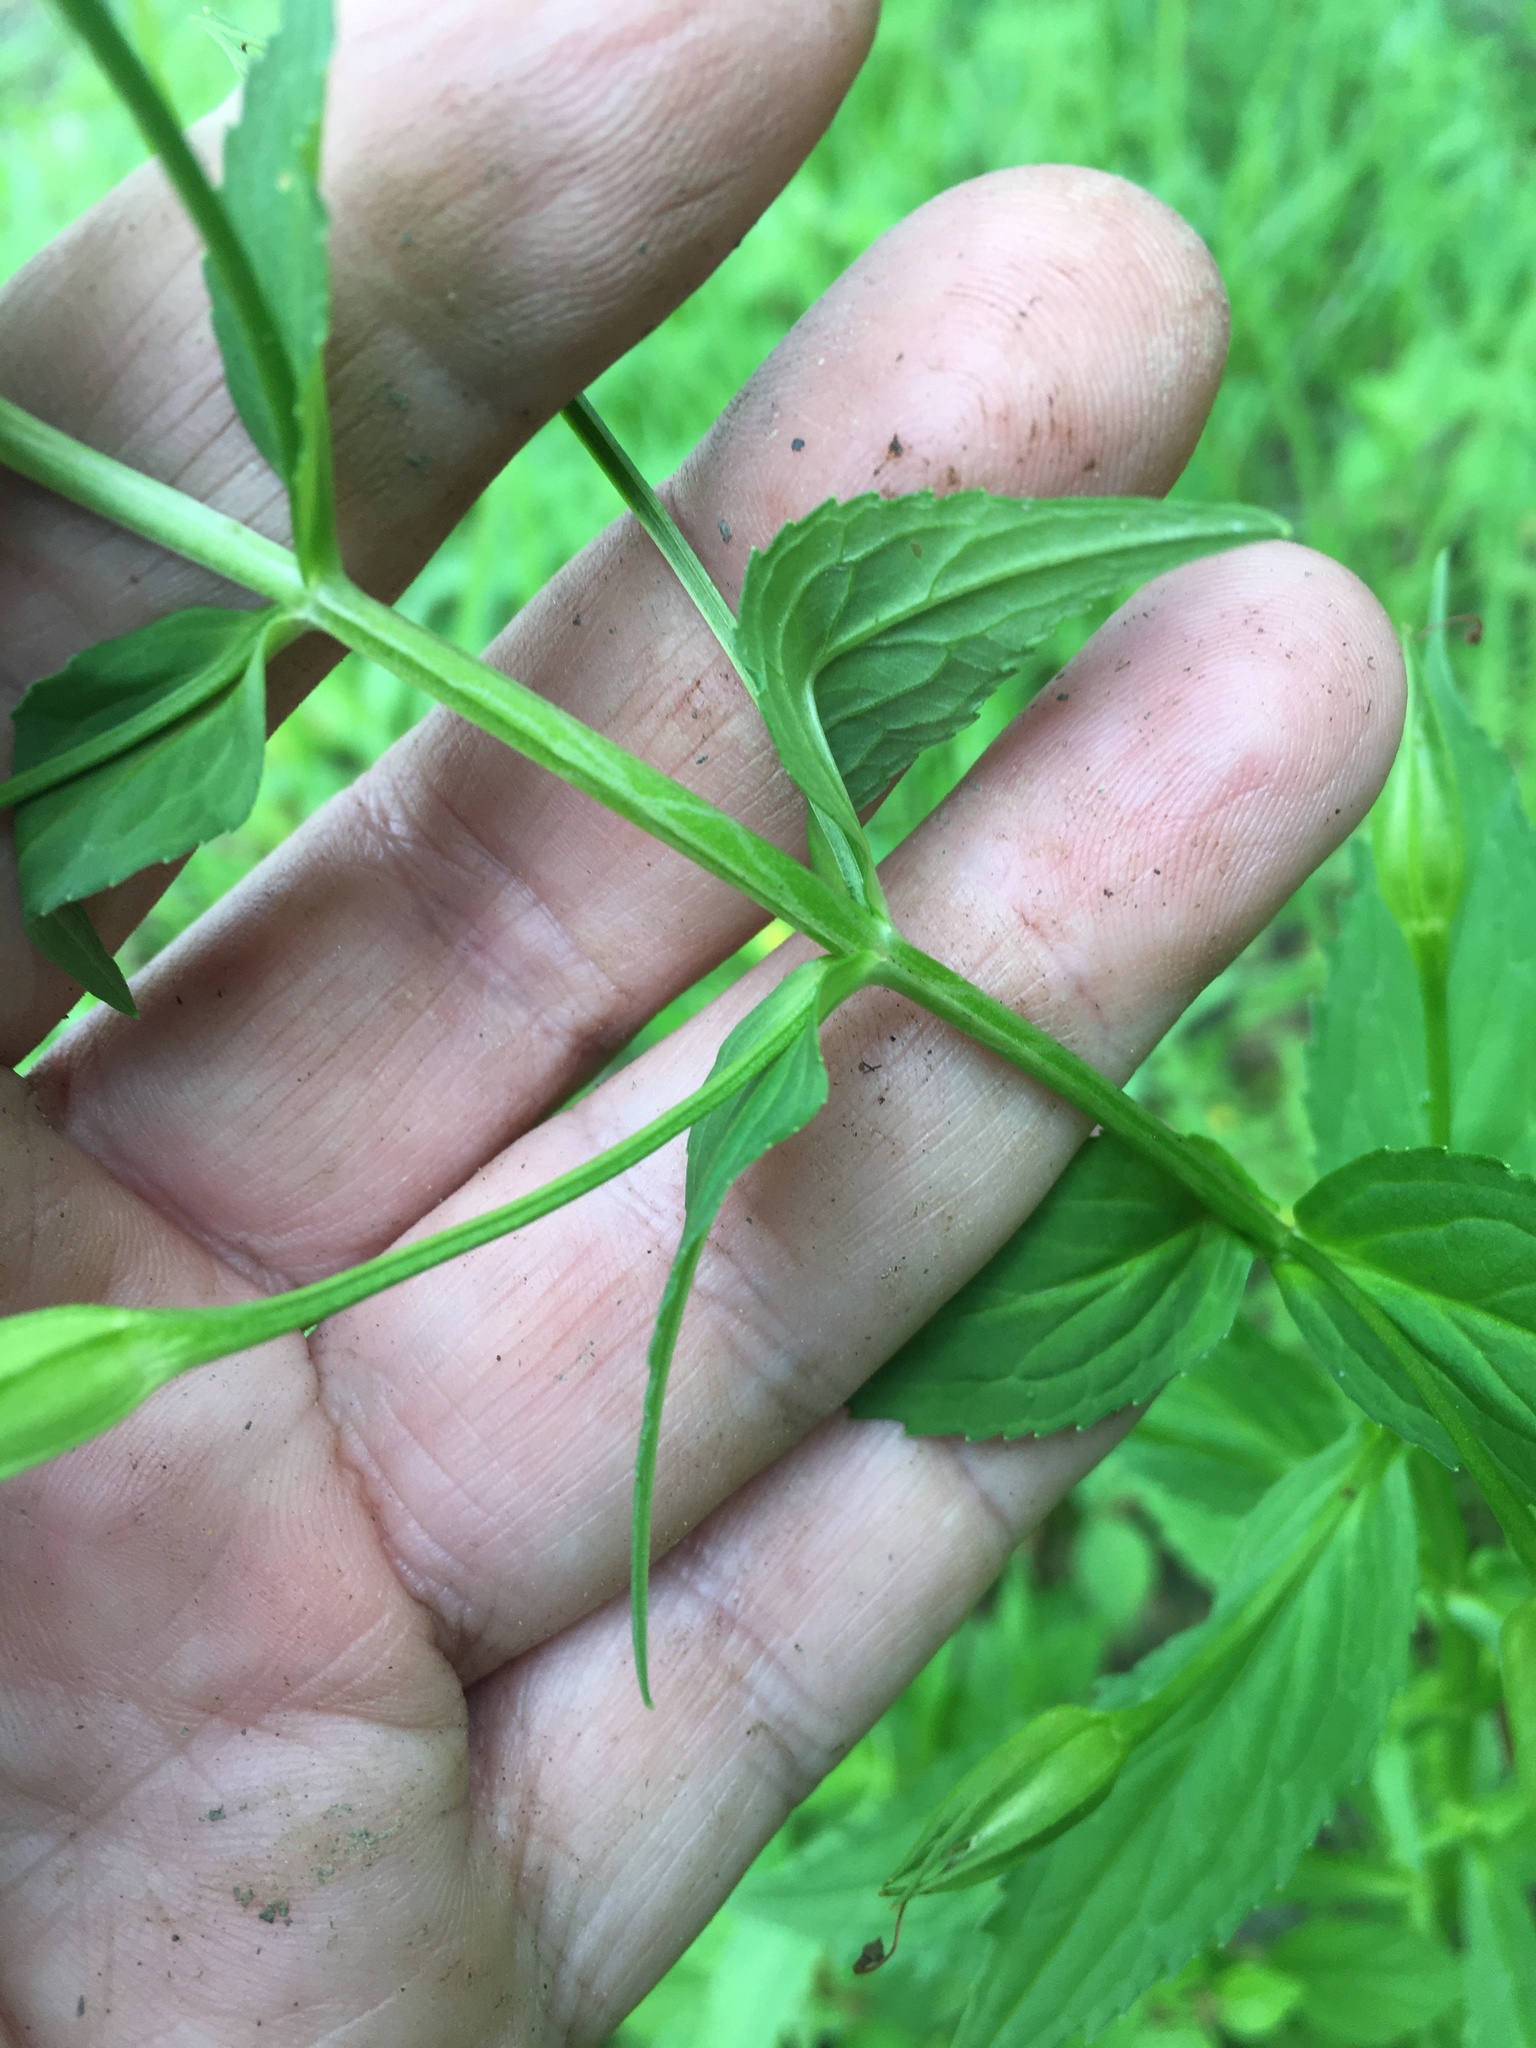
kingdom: Plantae
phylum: Tracheophyta
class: Magnoliopsida
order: Lamiales
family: Phrymaceae
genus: Mimulus
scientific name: Mimulus ringens
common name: Allegheny monkeyflower
